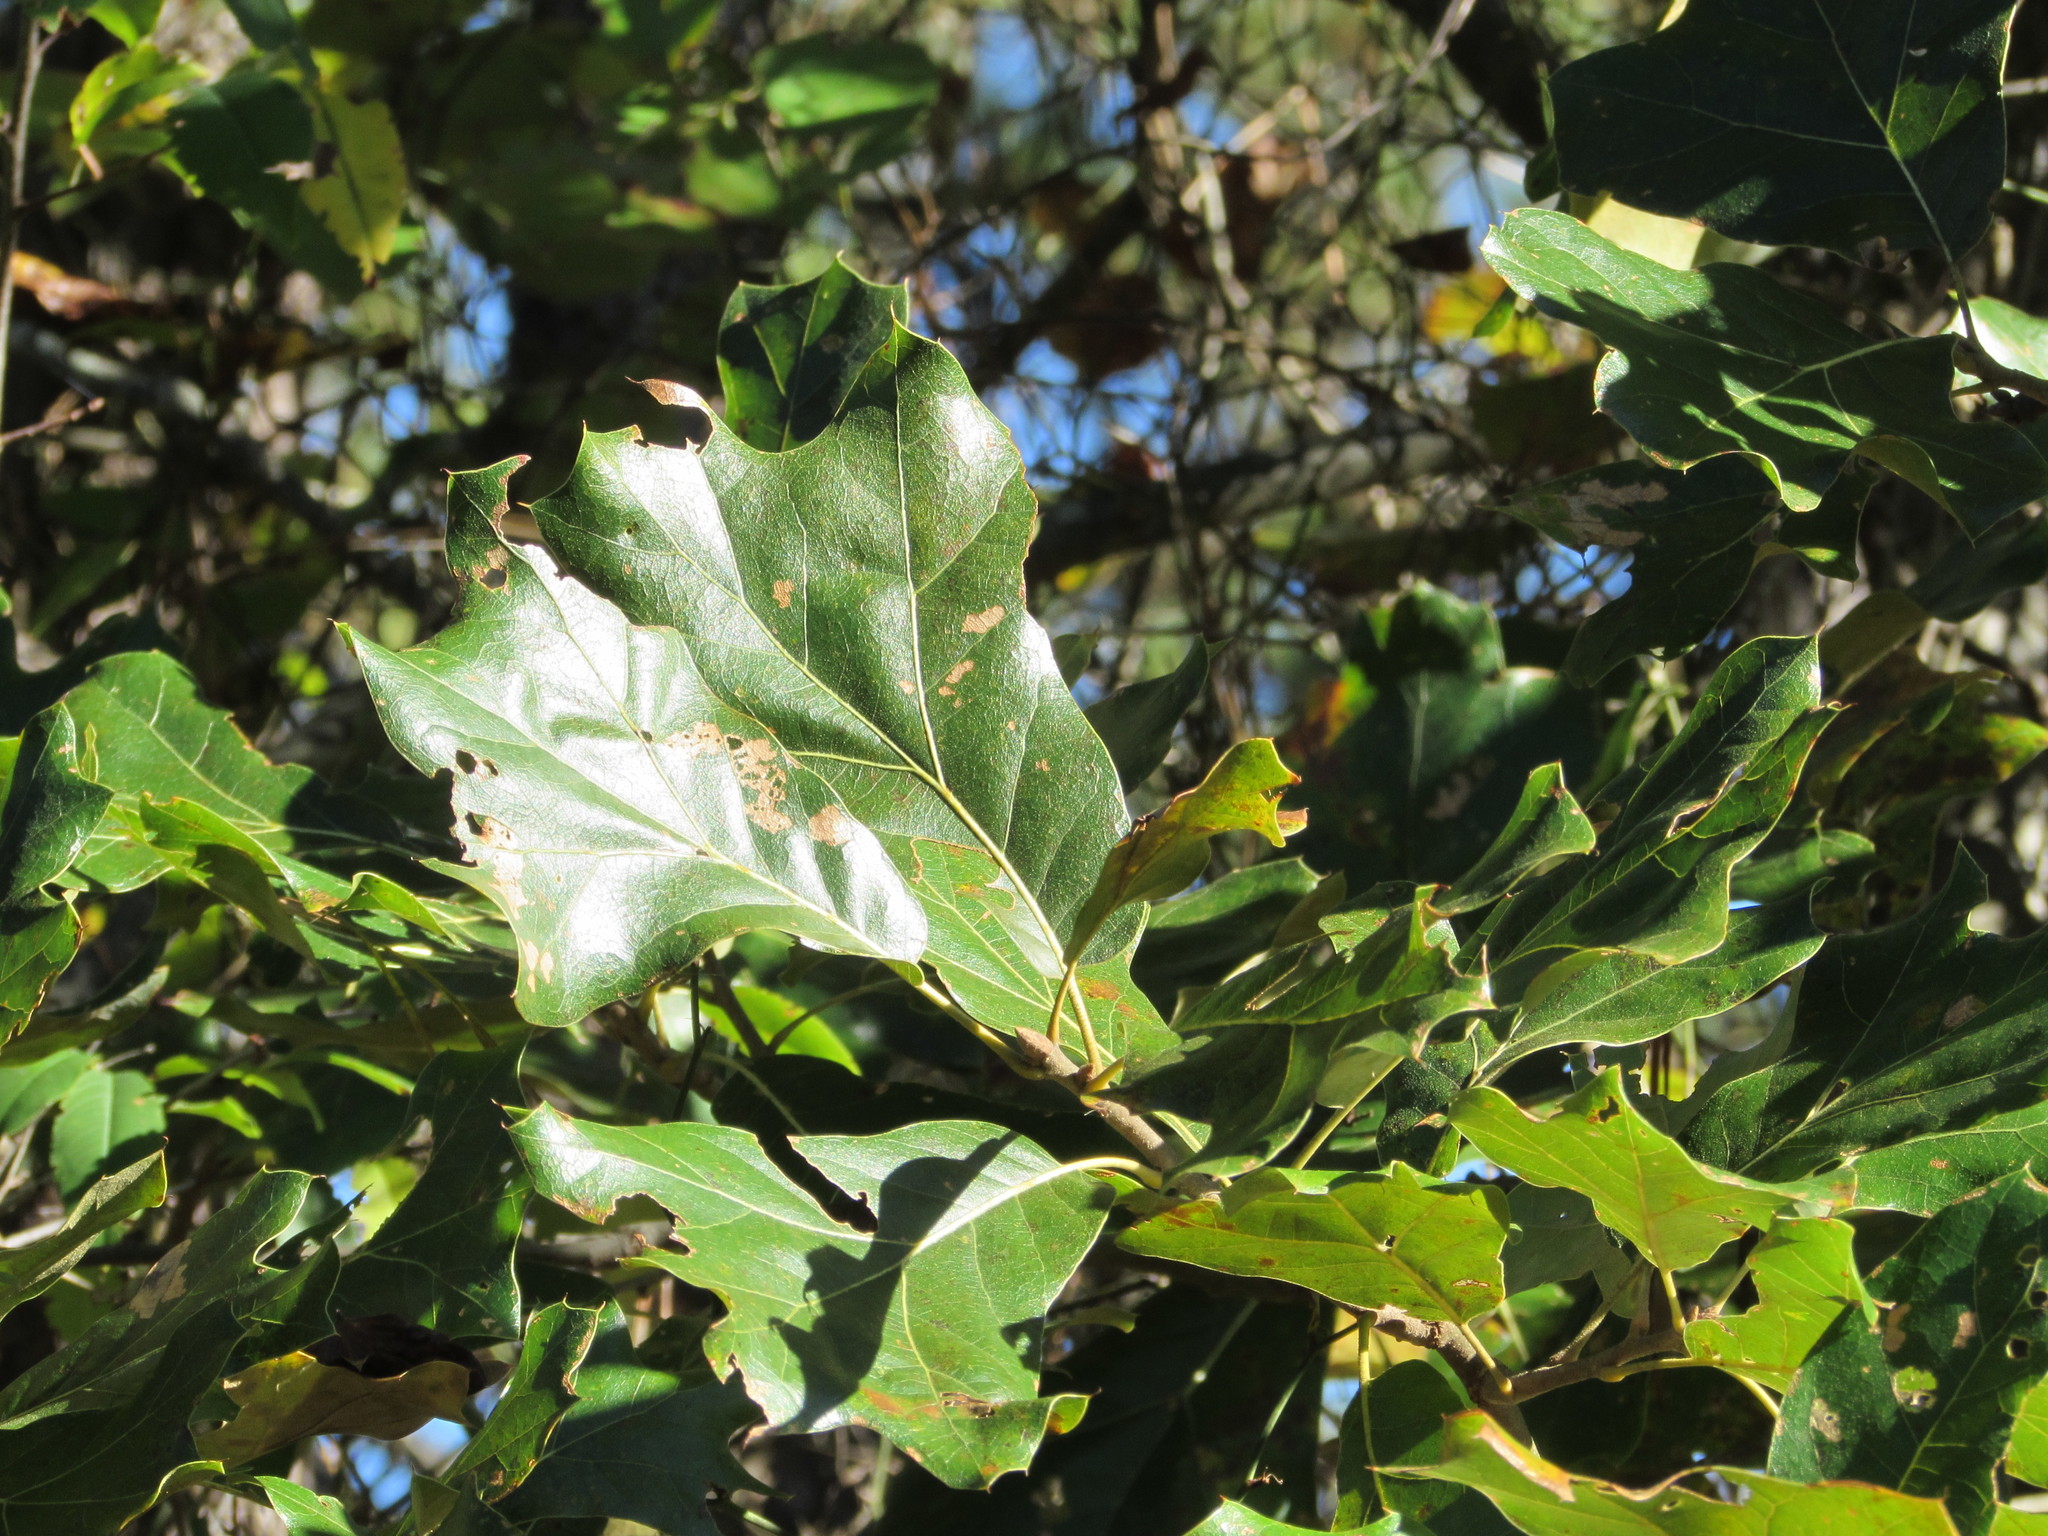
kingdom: Plantae
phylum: Tracheophyta
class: Magnoliopsida
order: Fagales
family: Fagaceae
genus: Quercus
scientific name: Quercus marilandica
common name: Blackjack oak
